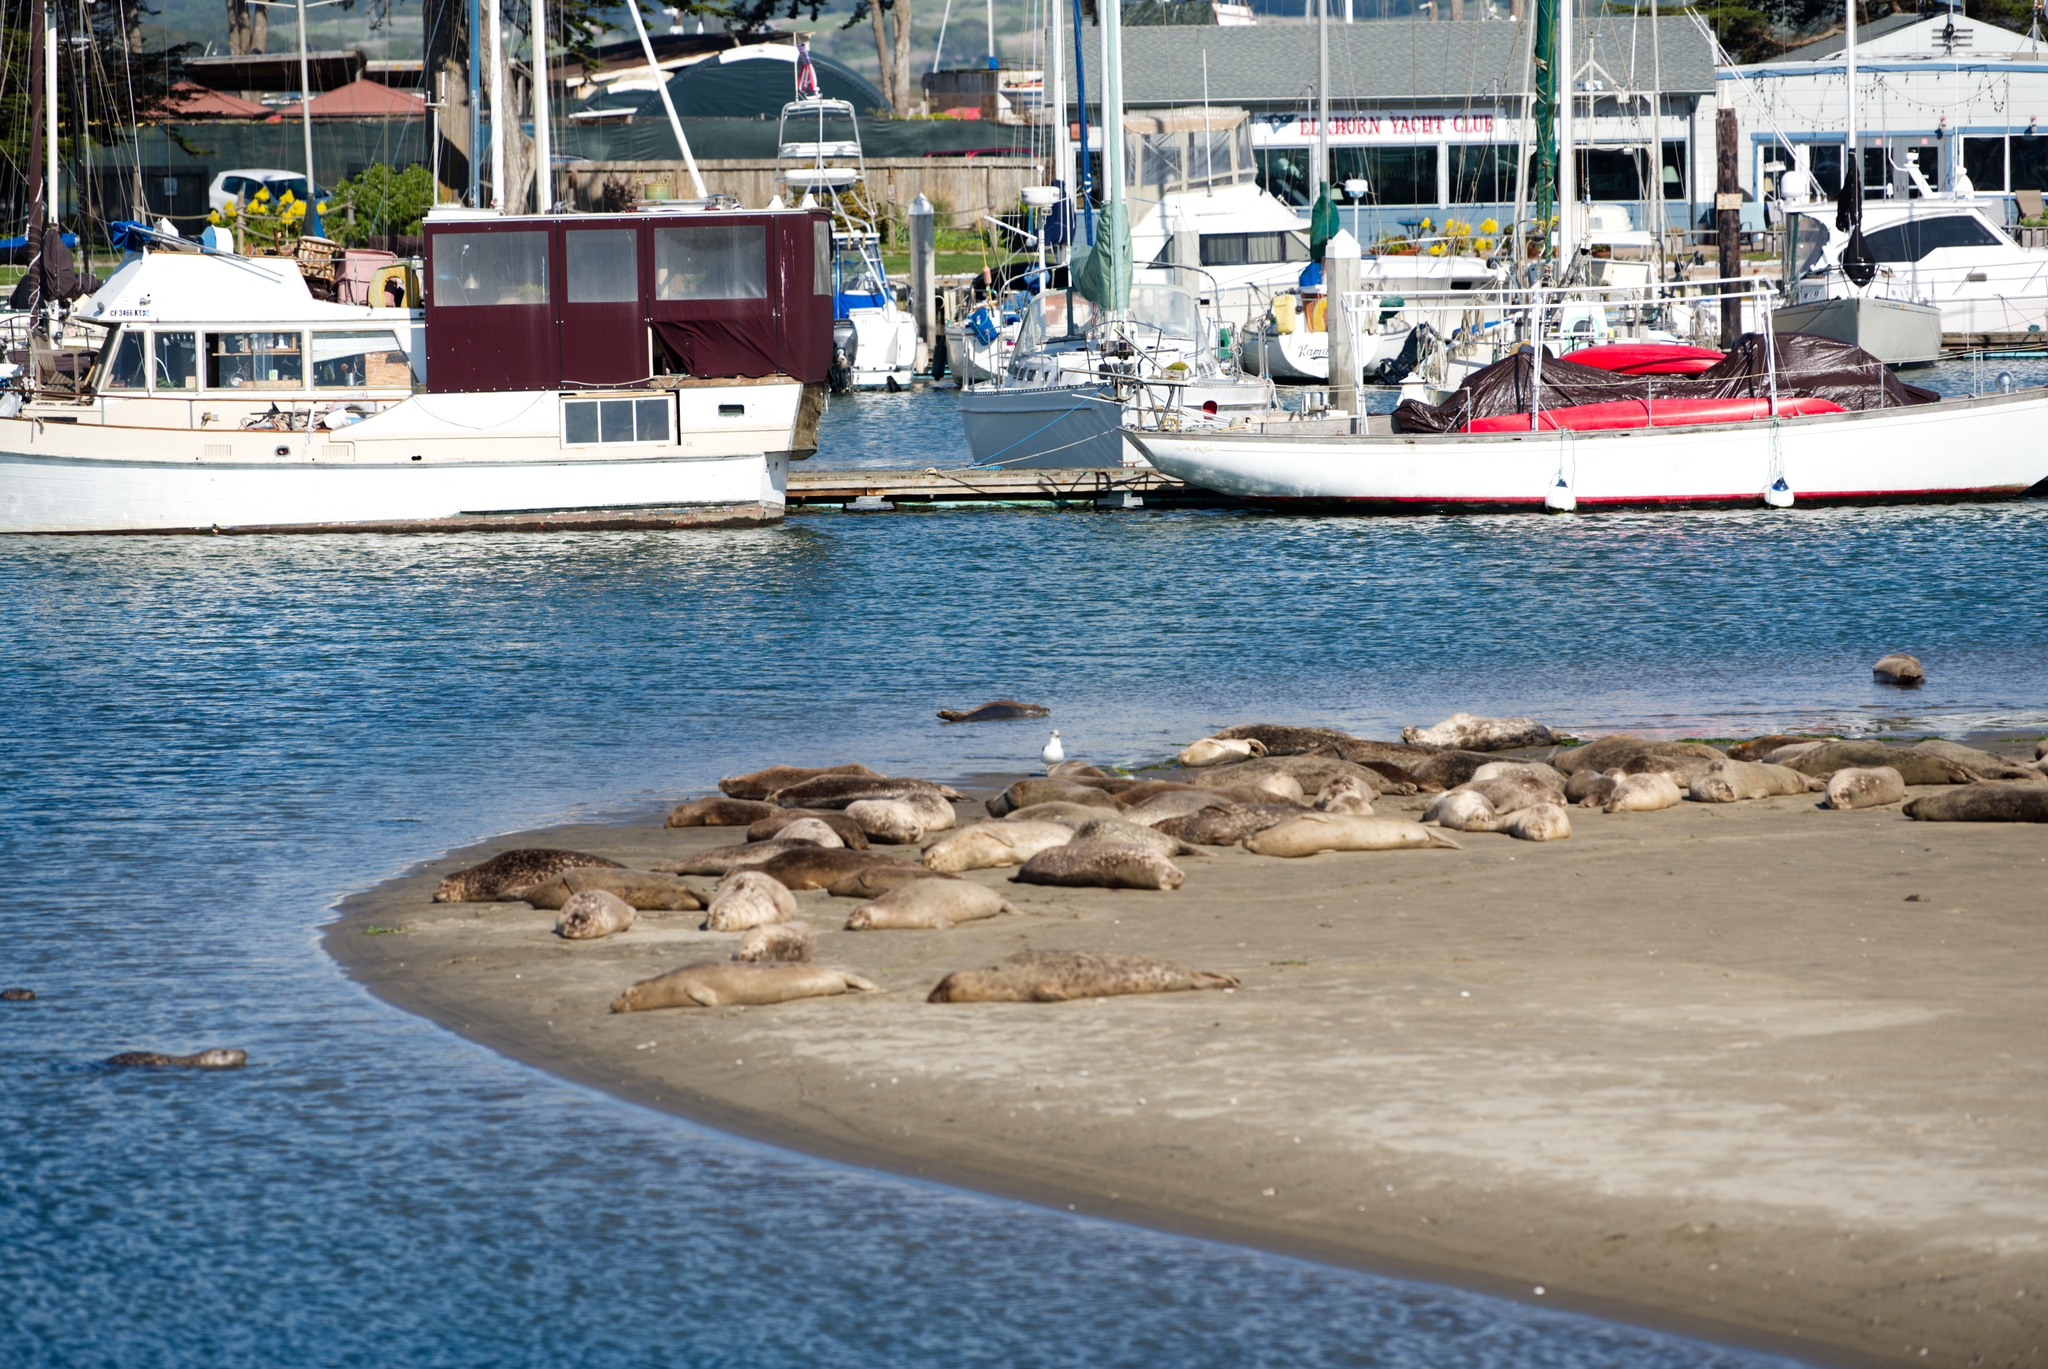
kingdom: Animalia
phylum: Chordata
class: Mammalia
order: Carnivora
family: Phocidae
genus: Phoca
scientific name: Phoca vitulina
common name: Harbor seal
